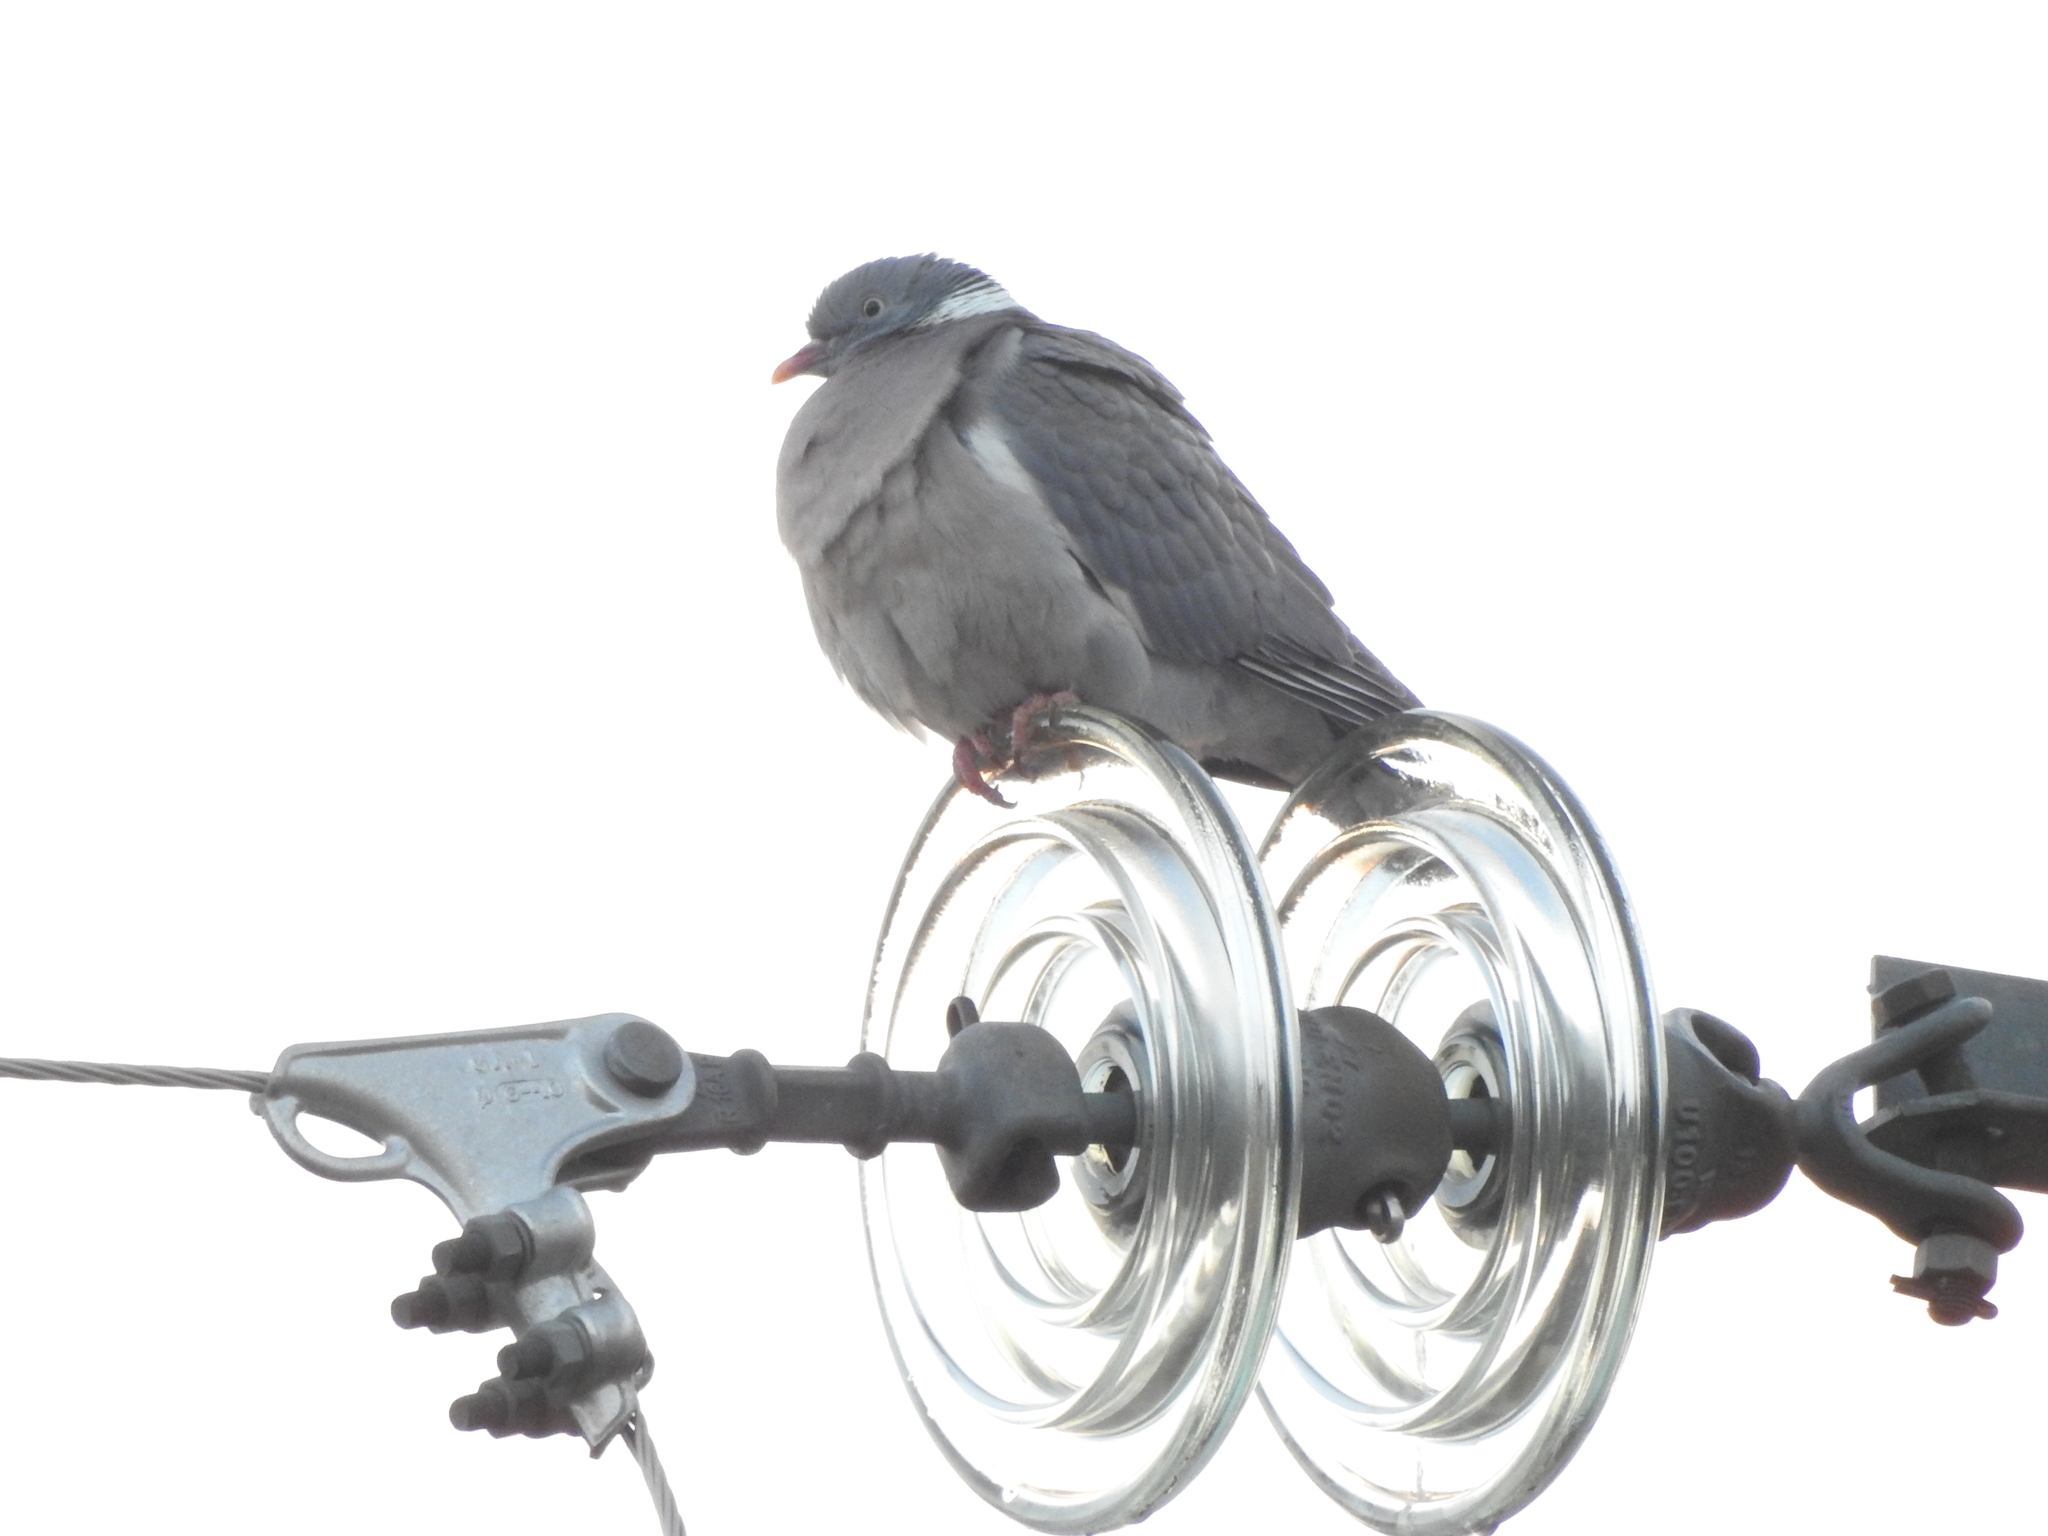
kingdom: Animalia
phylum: Chordata
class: Aves
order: Columbiformes
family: Columbidae
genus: Columba
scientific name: Columba palumbus
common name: Common wood pigeon
